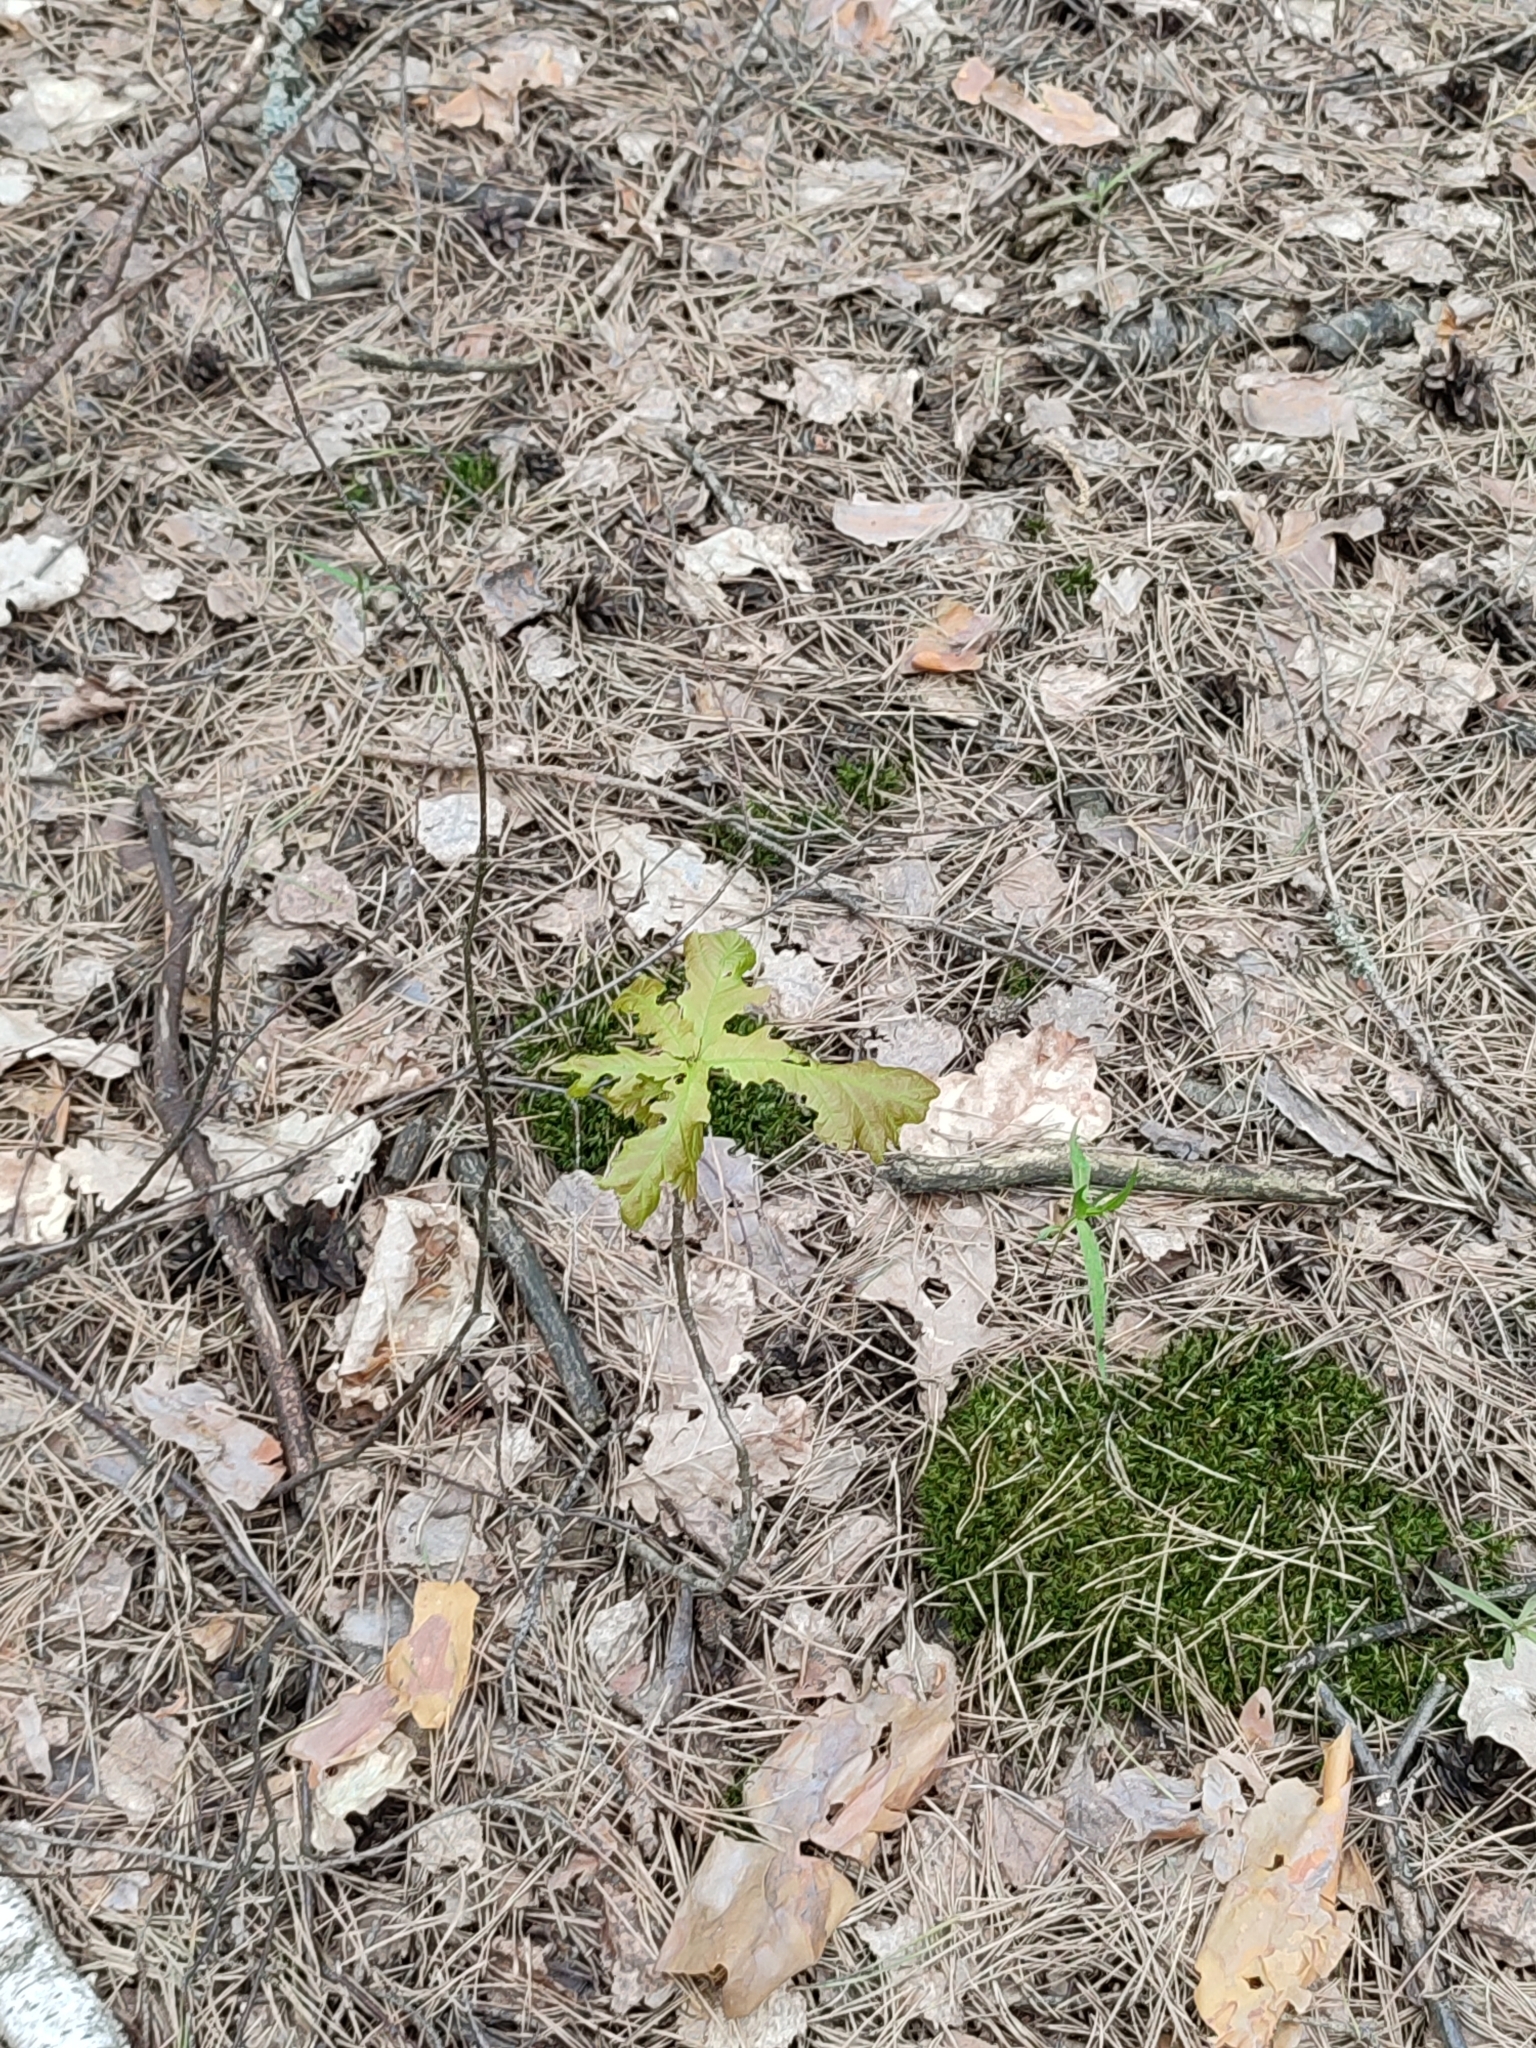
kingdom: Plantae
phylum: Tracheophyta
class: Magnoliopsida
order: Fagales
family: Fagaceae
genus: Quercus
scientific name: Quercus robur
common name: Pedunculate oak
